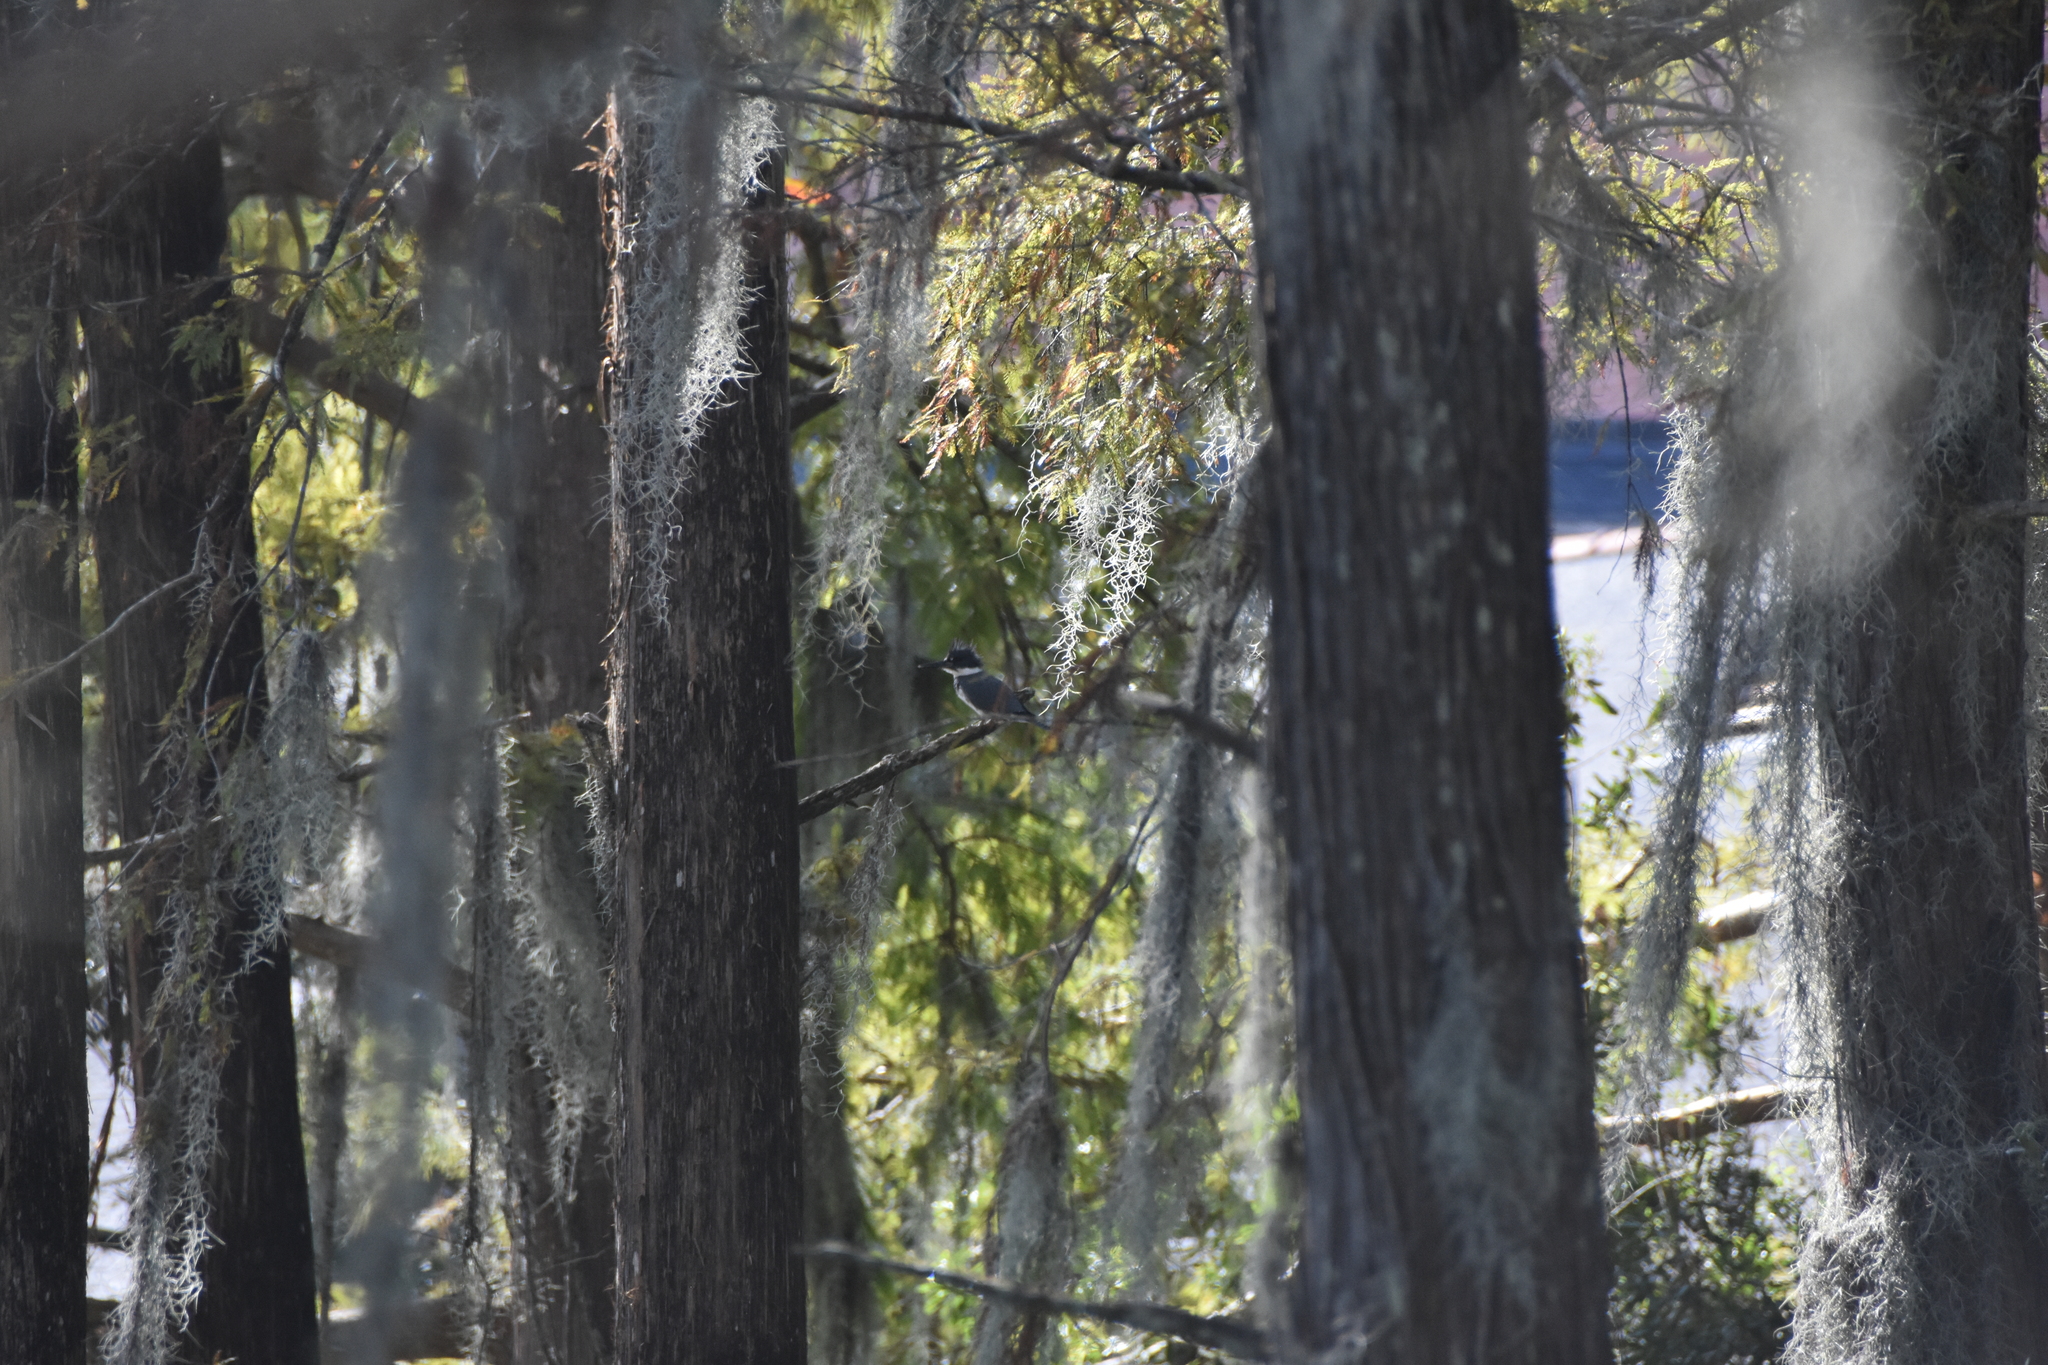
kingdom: Animalia
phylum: Chordata
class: Aves
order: Coraciiformes
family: Alcedinidae
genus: Megaceryle
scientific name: Megaceryle alcyon
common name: Belted kingfisher
